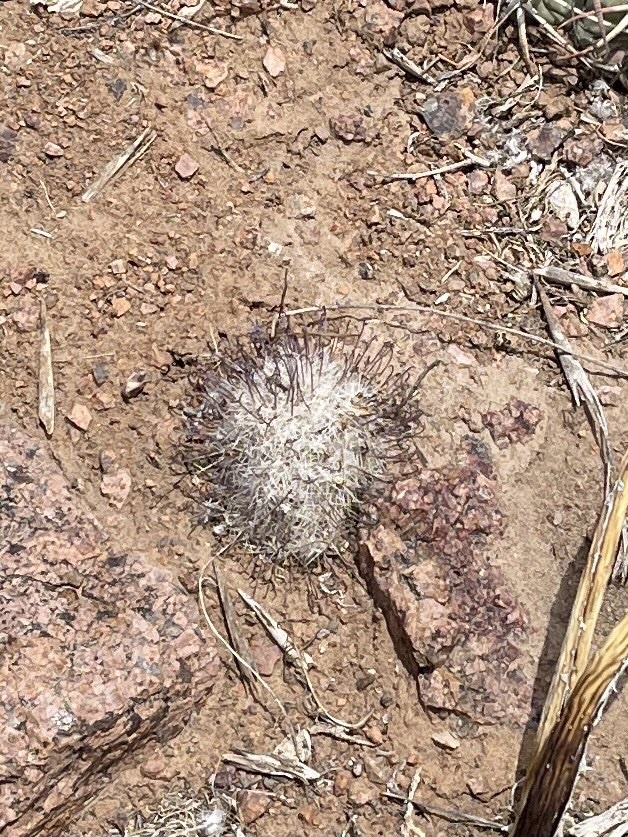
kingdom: Plantae
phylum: Tracheophyta
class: Magnoliopsida
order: Caryophyllales
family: Cactaceae
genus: Cochemiea
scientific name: Cochemiea grahamii
